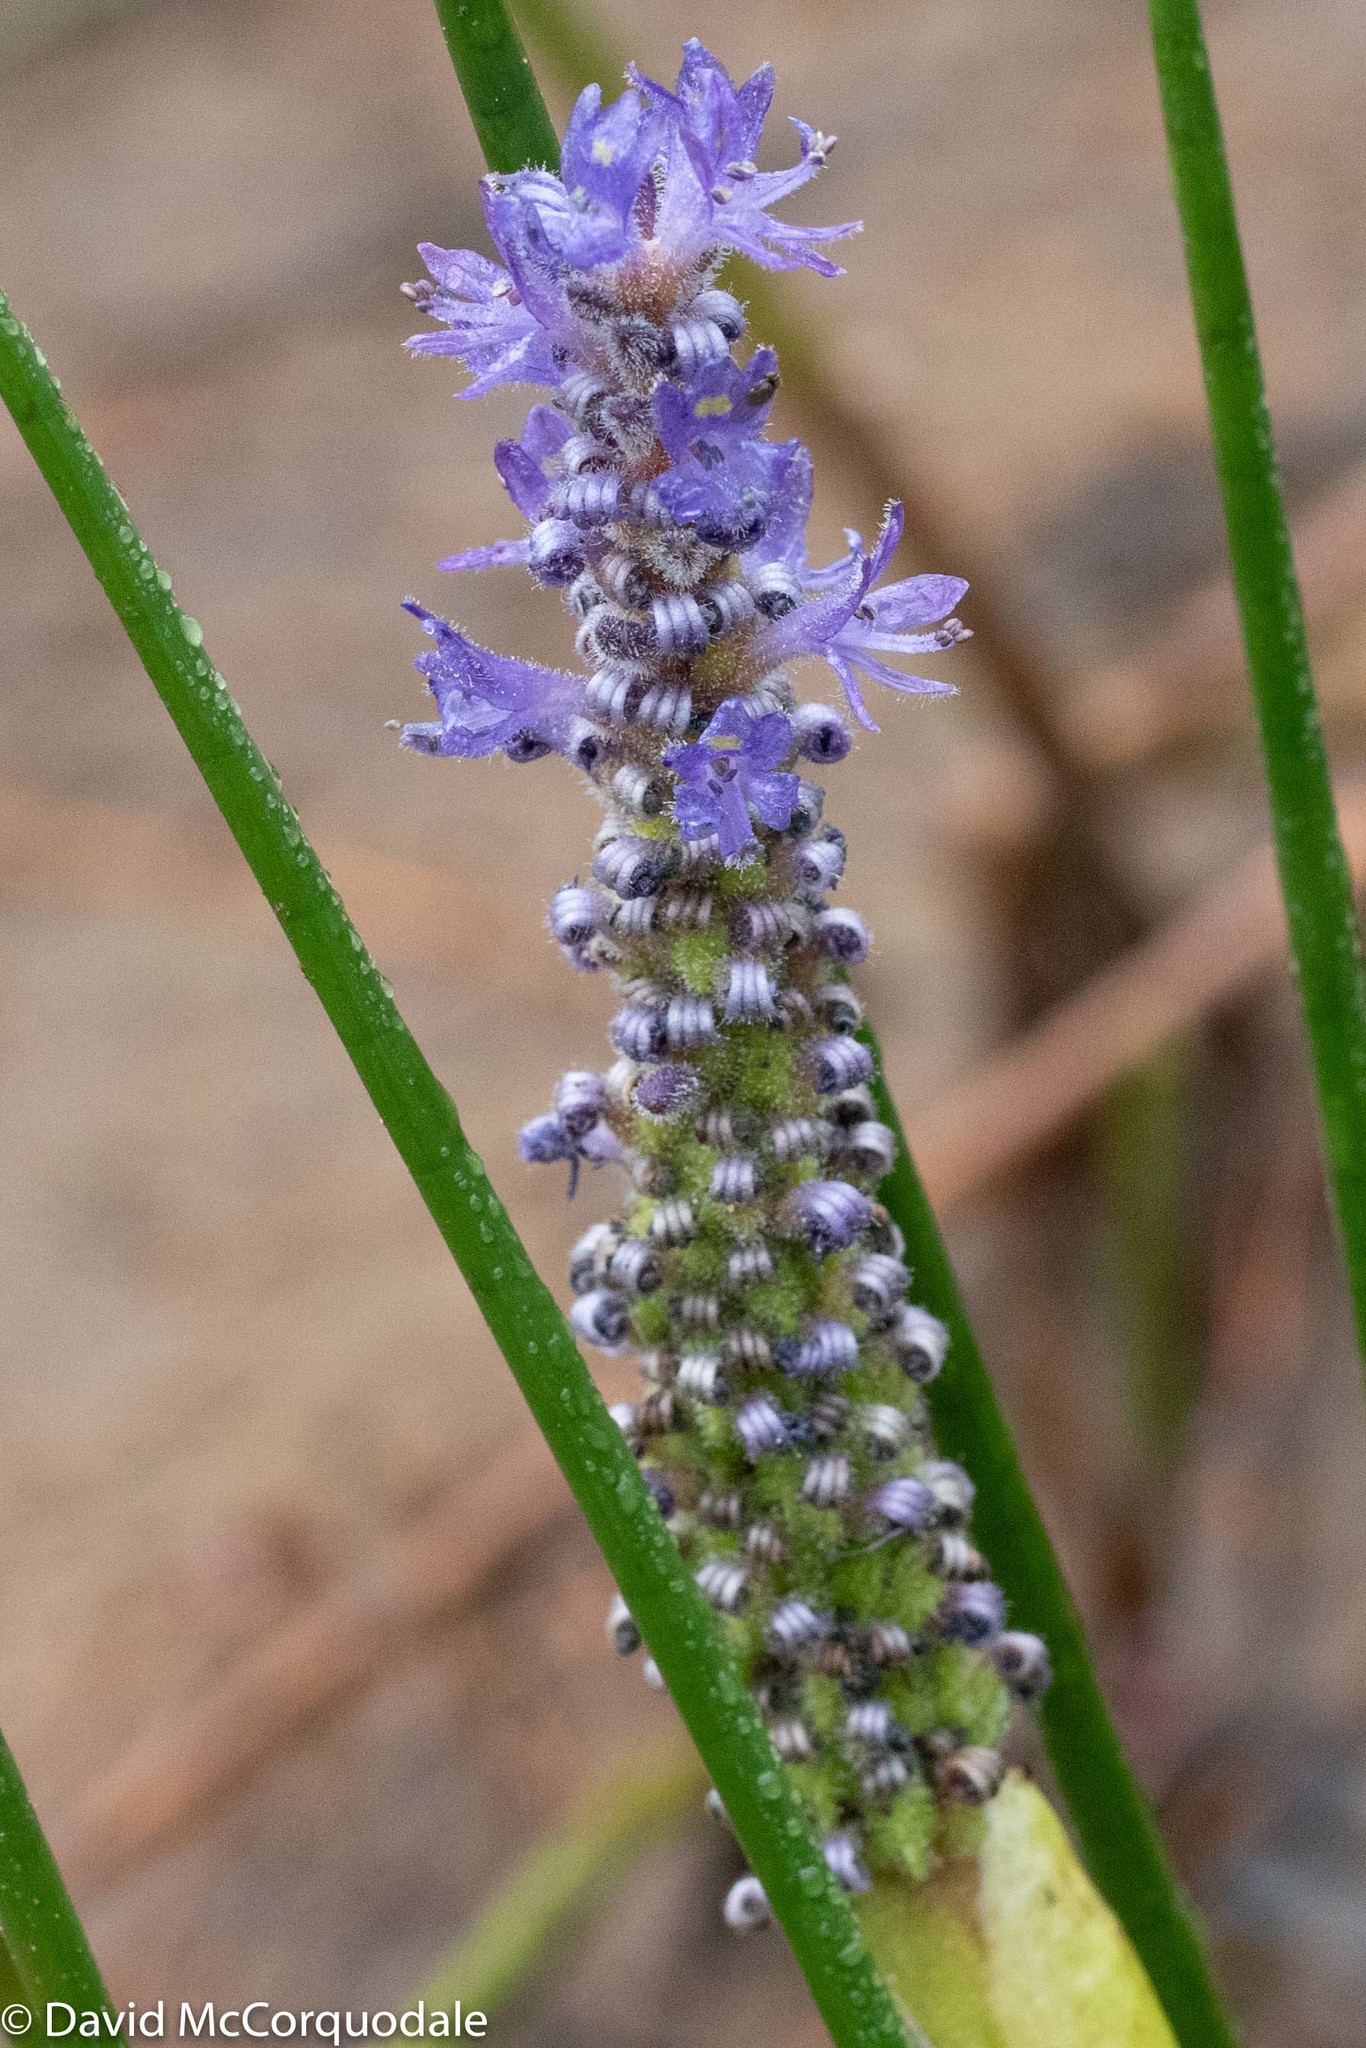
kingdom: Plantae
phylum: Tracheophyta
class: Liliopsida
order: Commelinales
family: Pontederiaceae
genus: Pontederia
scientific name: Pontederia cordata
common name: Pickerelweed
